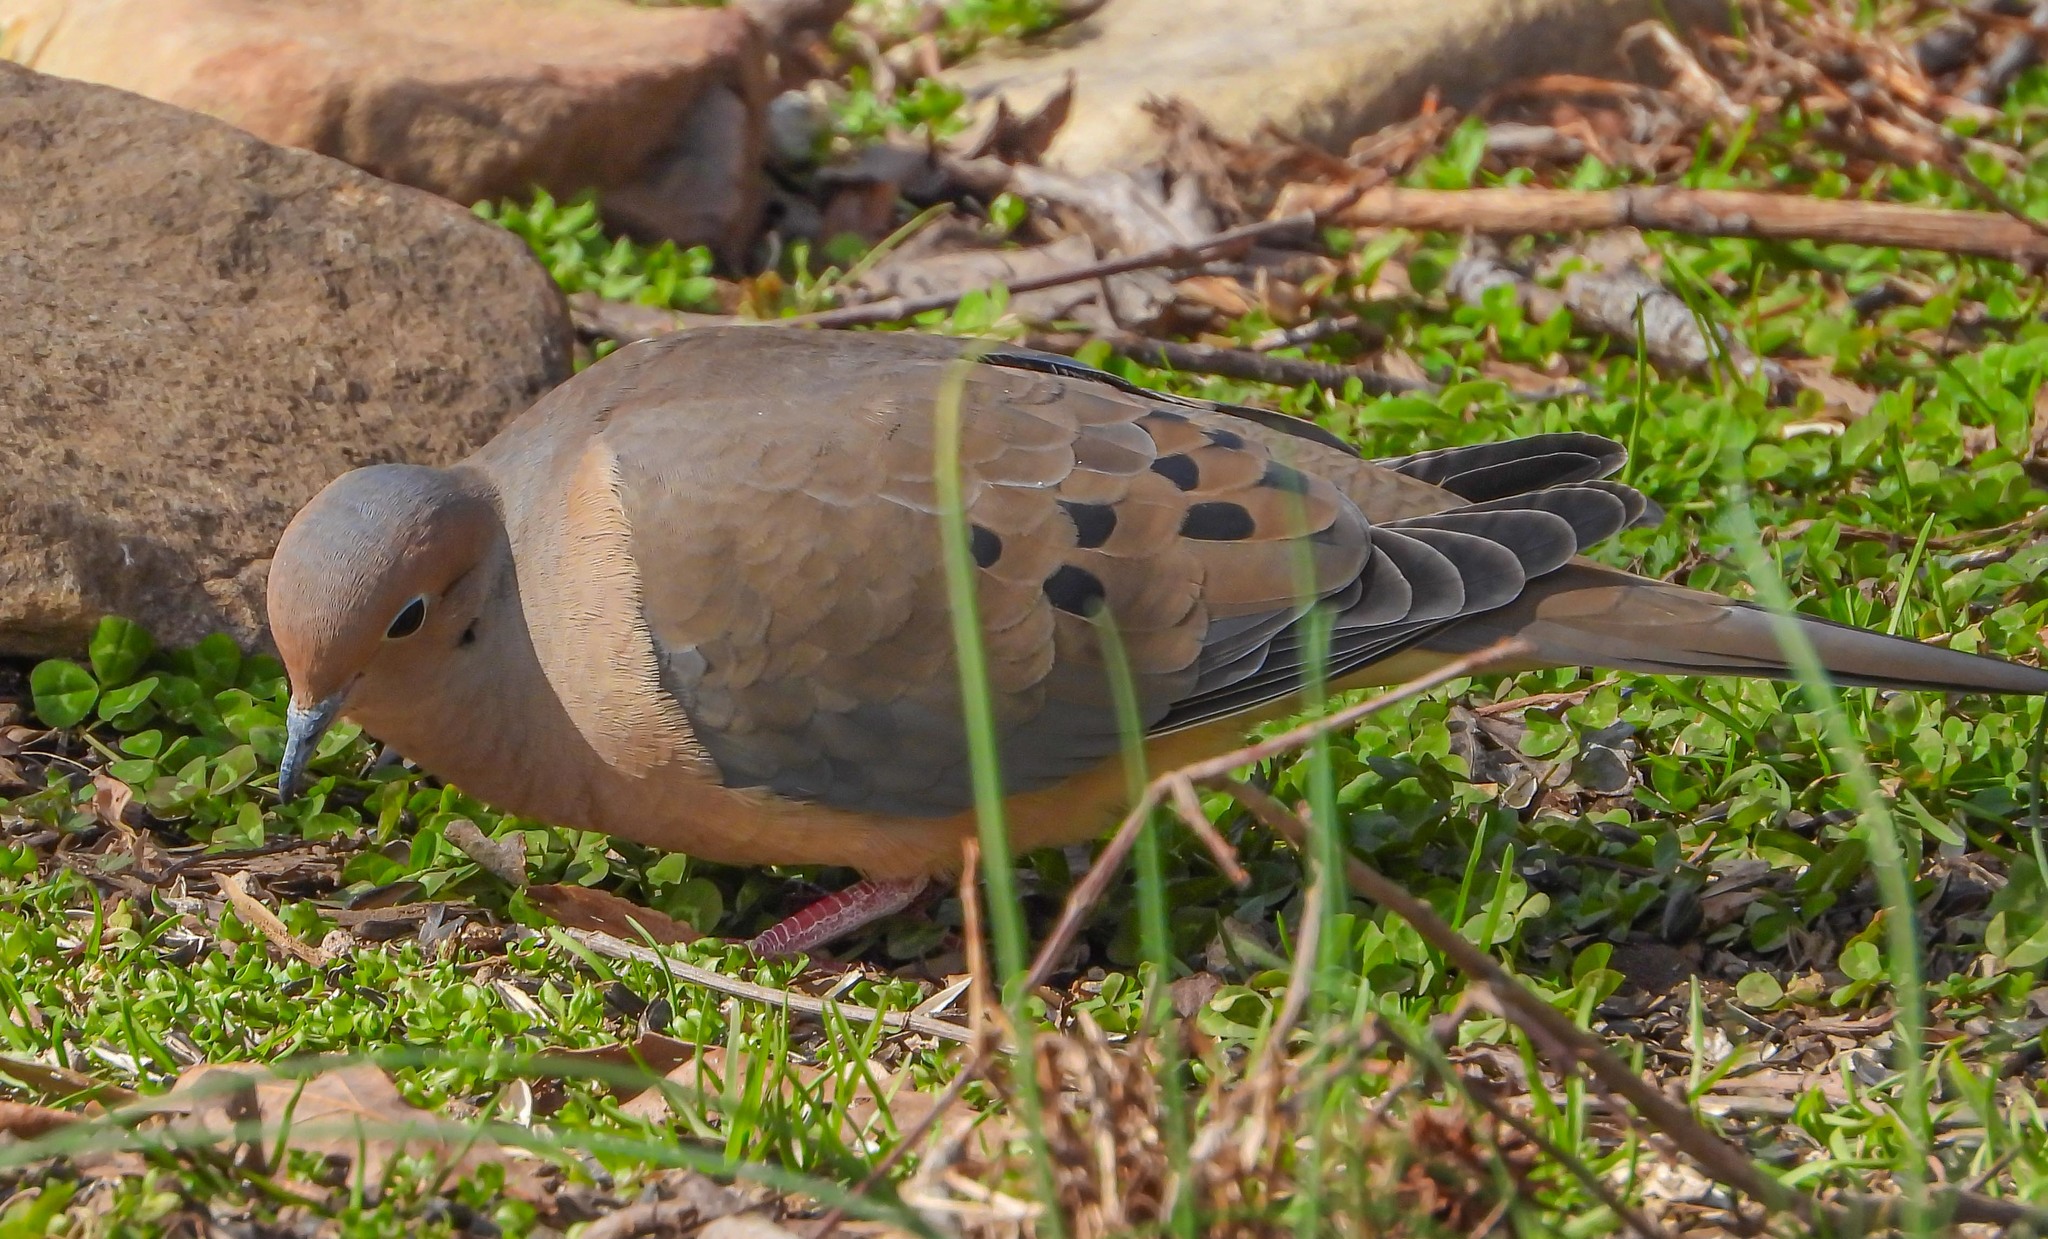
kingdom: Animalia
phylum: Chordata
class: Aves
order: Columbiformes
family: Columbidae
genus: Zenaida
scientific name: Zenaida macroura
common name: Mourning dove
